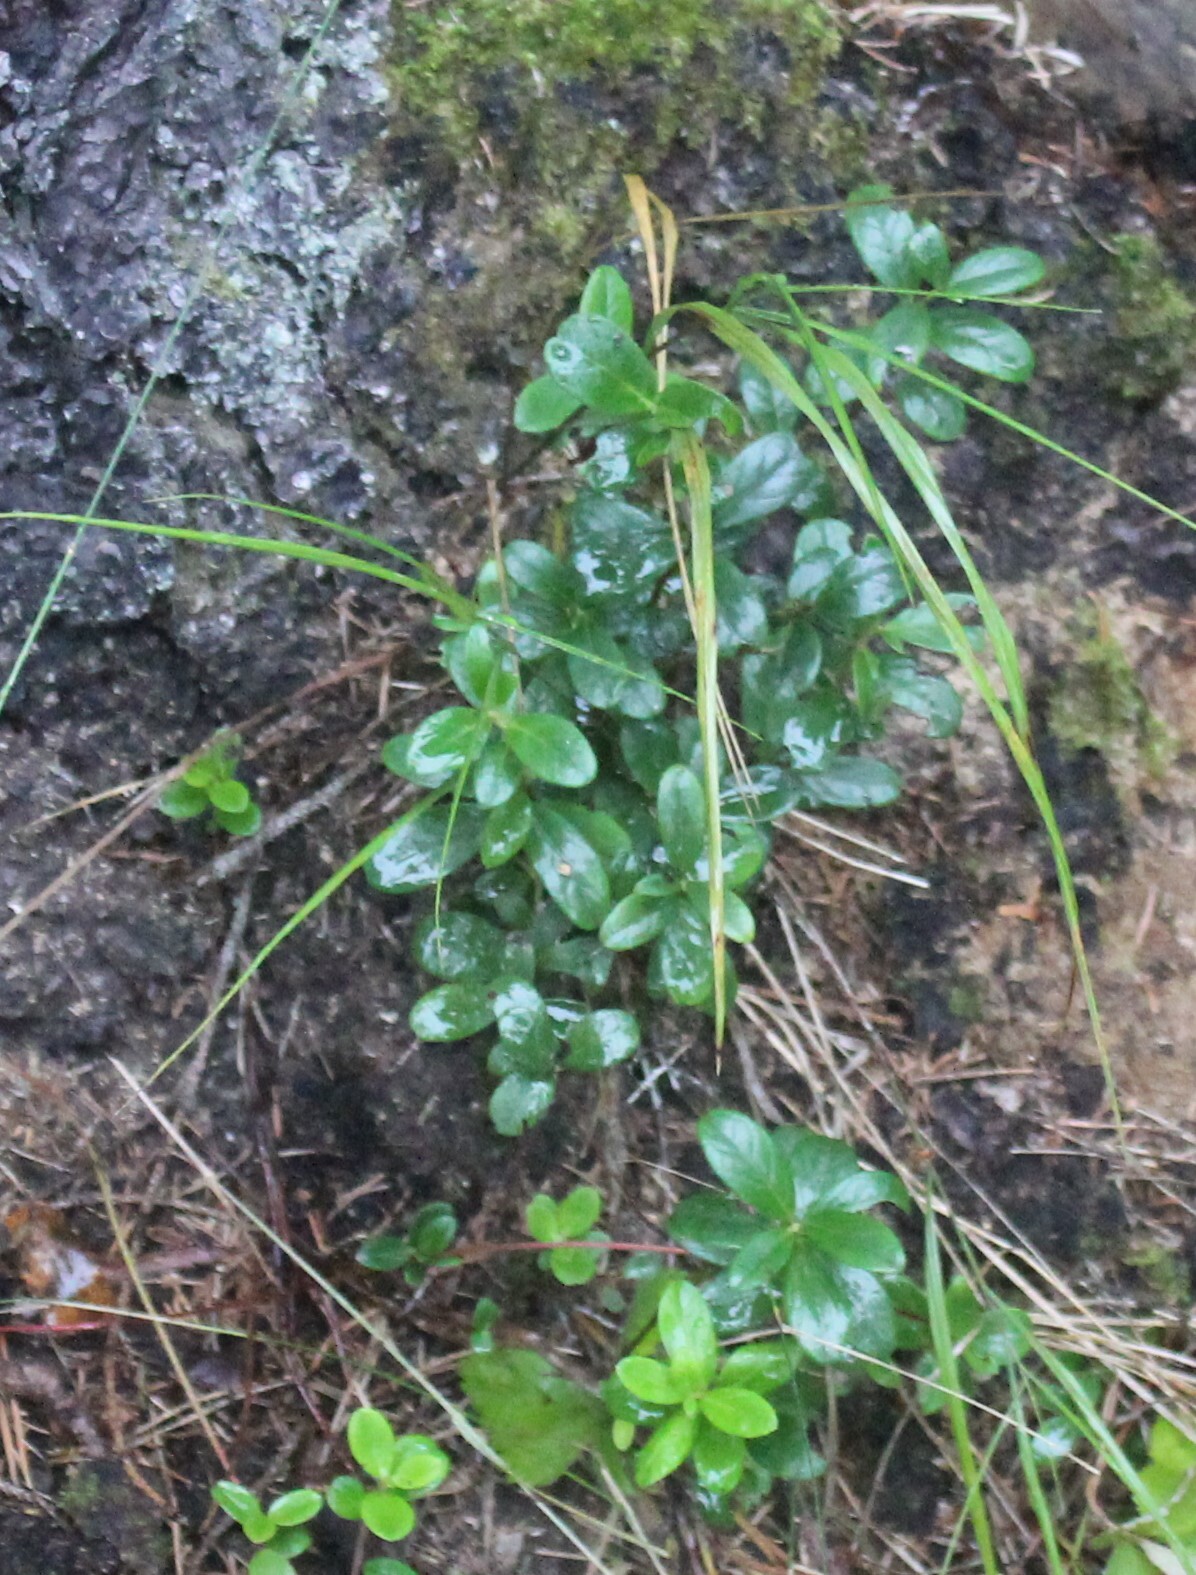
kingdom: Plantae
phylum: Tracheophyta
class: Magnoliopsida
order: Ericales
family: Ericaceae
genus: Vaccinium
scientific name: Vaccinium vitis-idaea
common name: Cowberry
